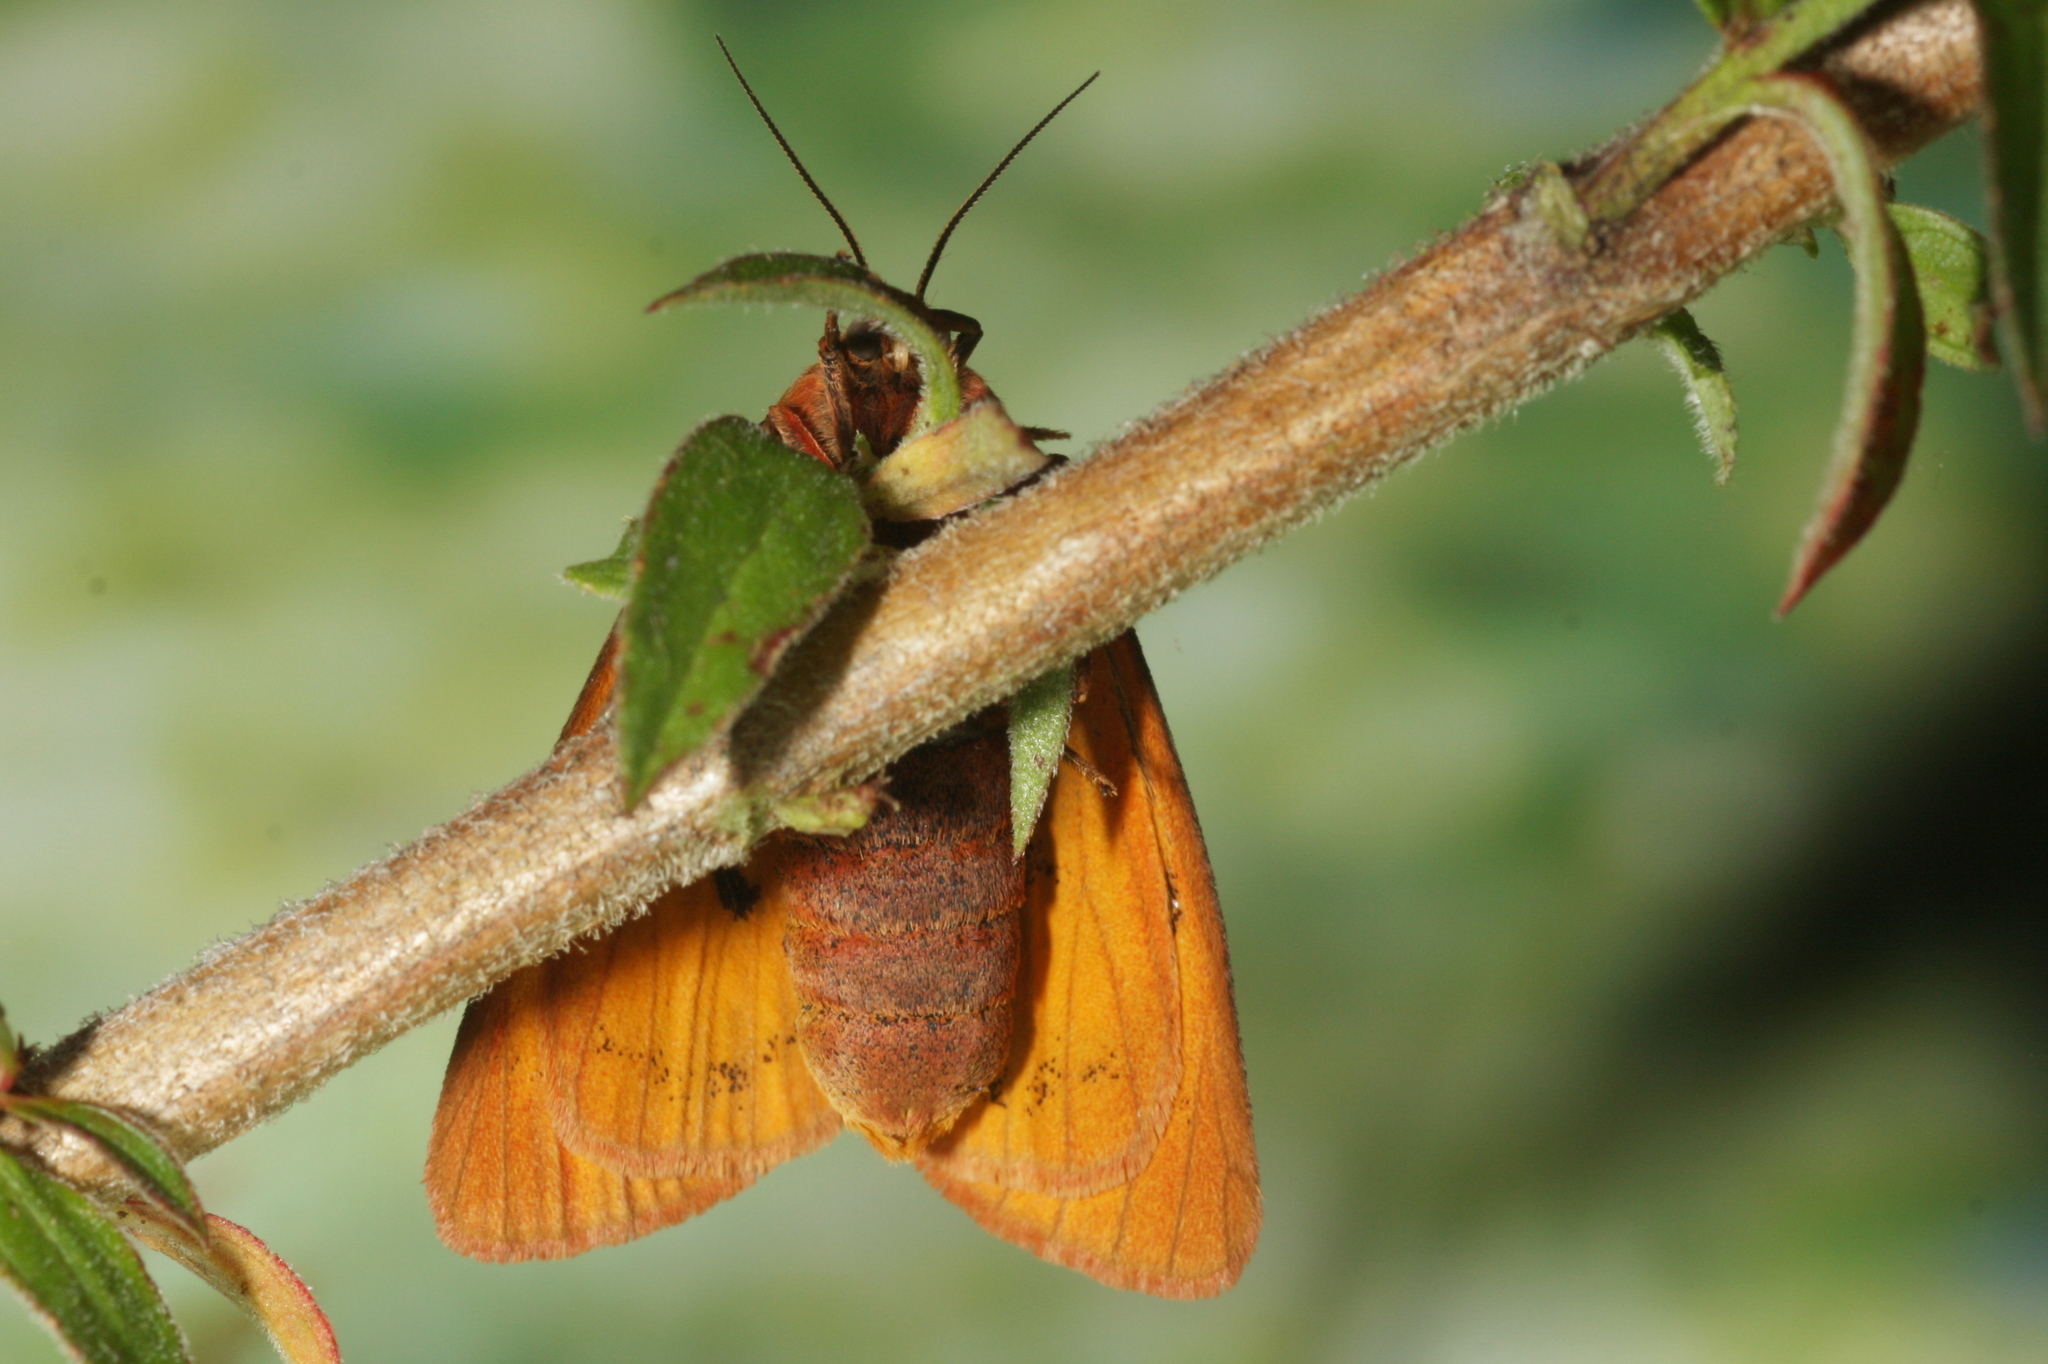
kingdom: Animalia
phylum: Arthropoda
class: Insecta
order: Lepidoptera
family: Erebidae
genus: Diacrisia
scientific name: Diacrisia sannio
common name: Clouded buff
